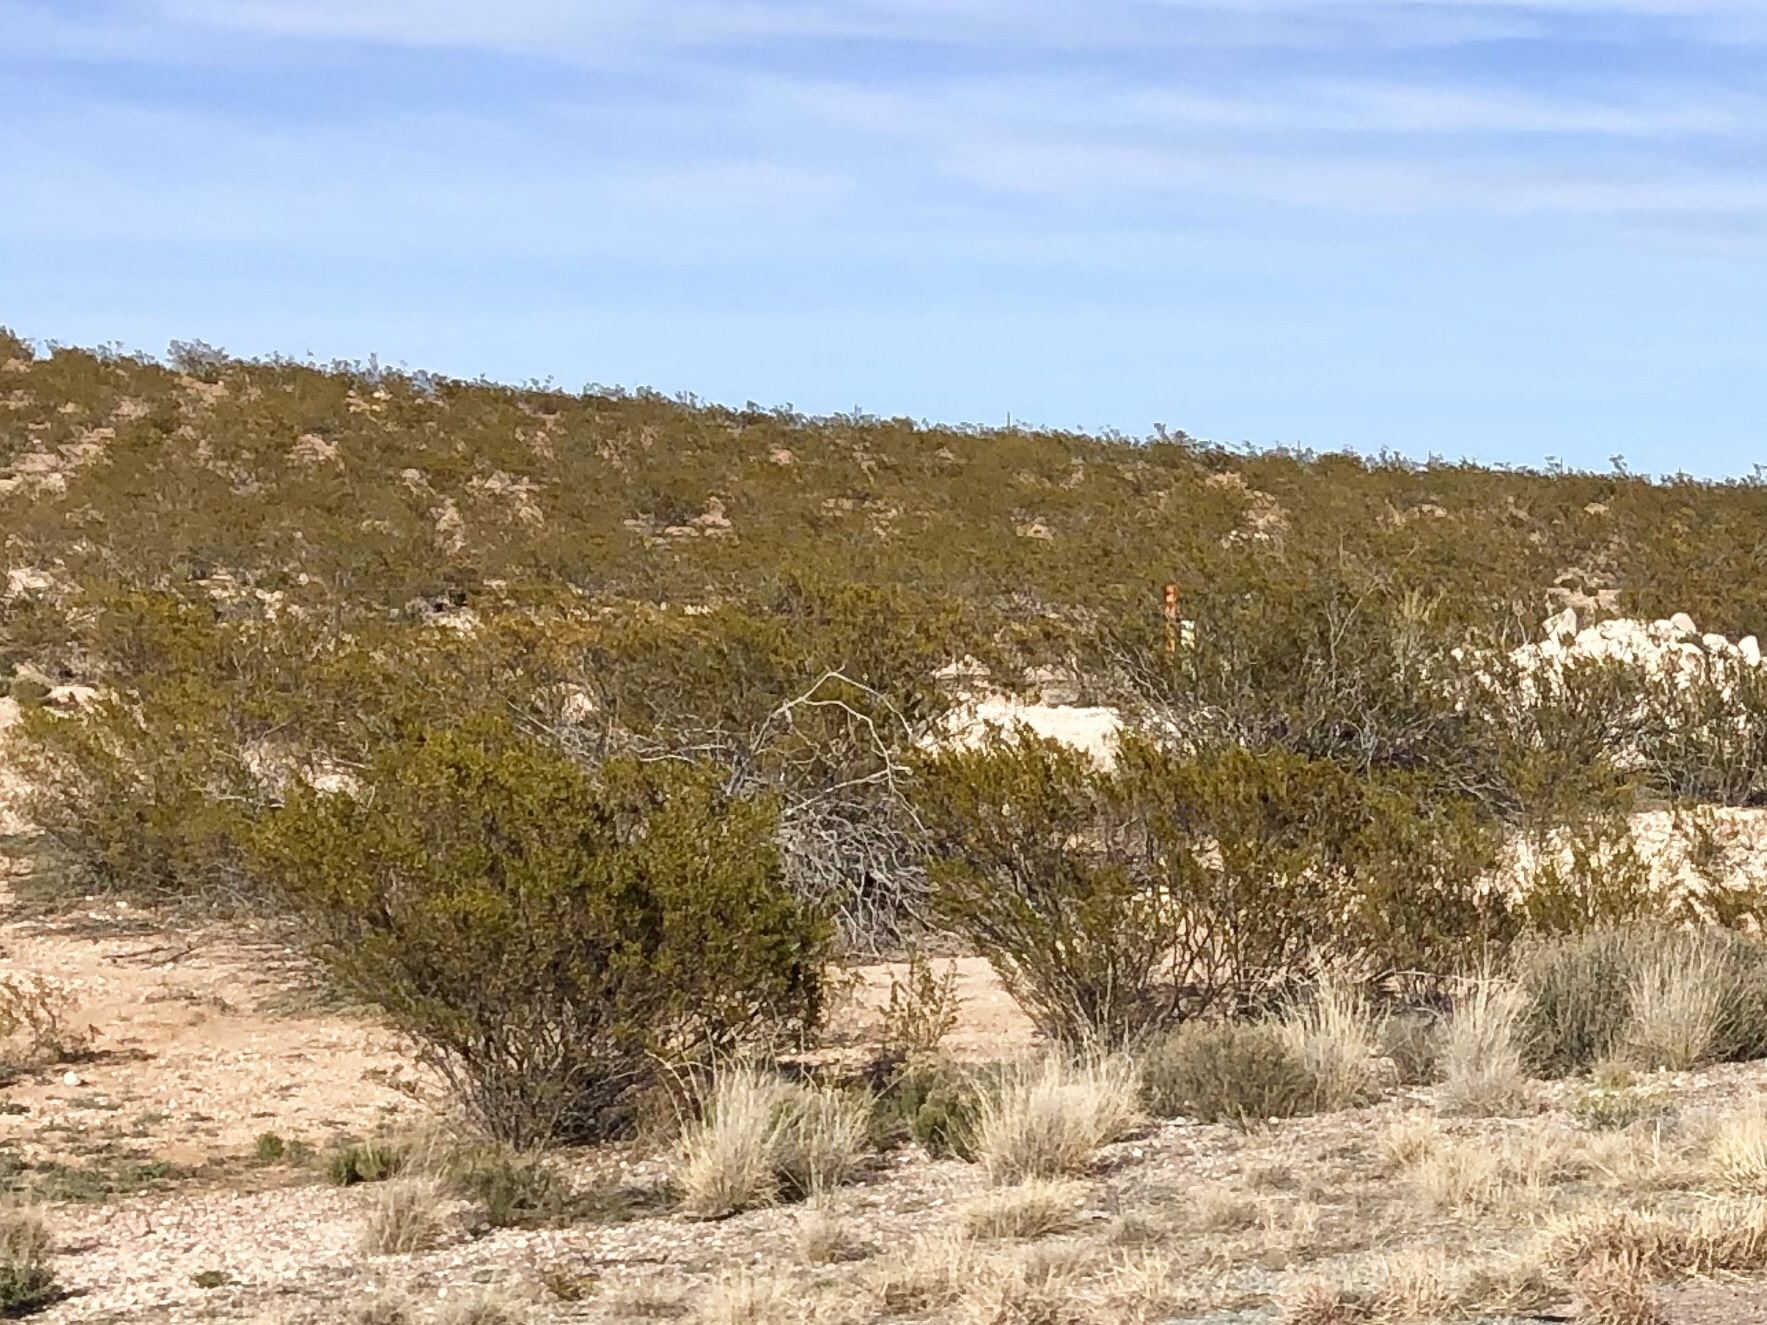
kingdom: Plantae
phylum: Tracheophyta
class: Magnoliopsida
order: Zygophyllales
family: Zygophyllaceae
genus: Larrea
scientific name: Larrea tridentata
